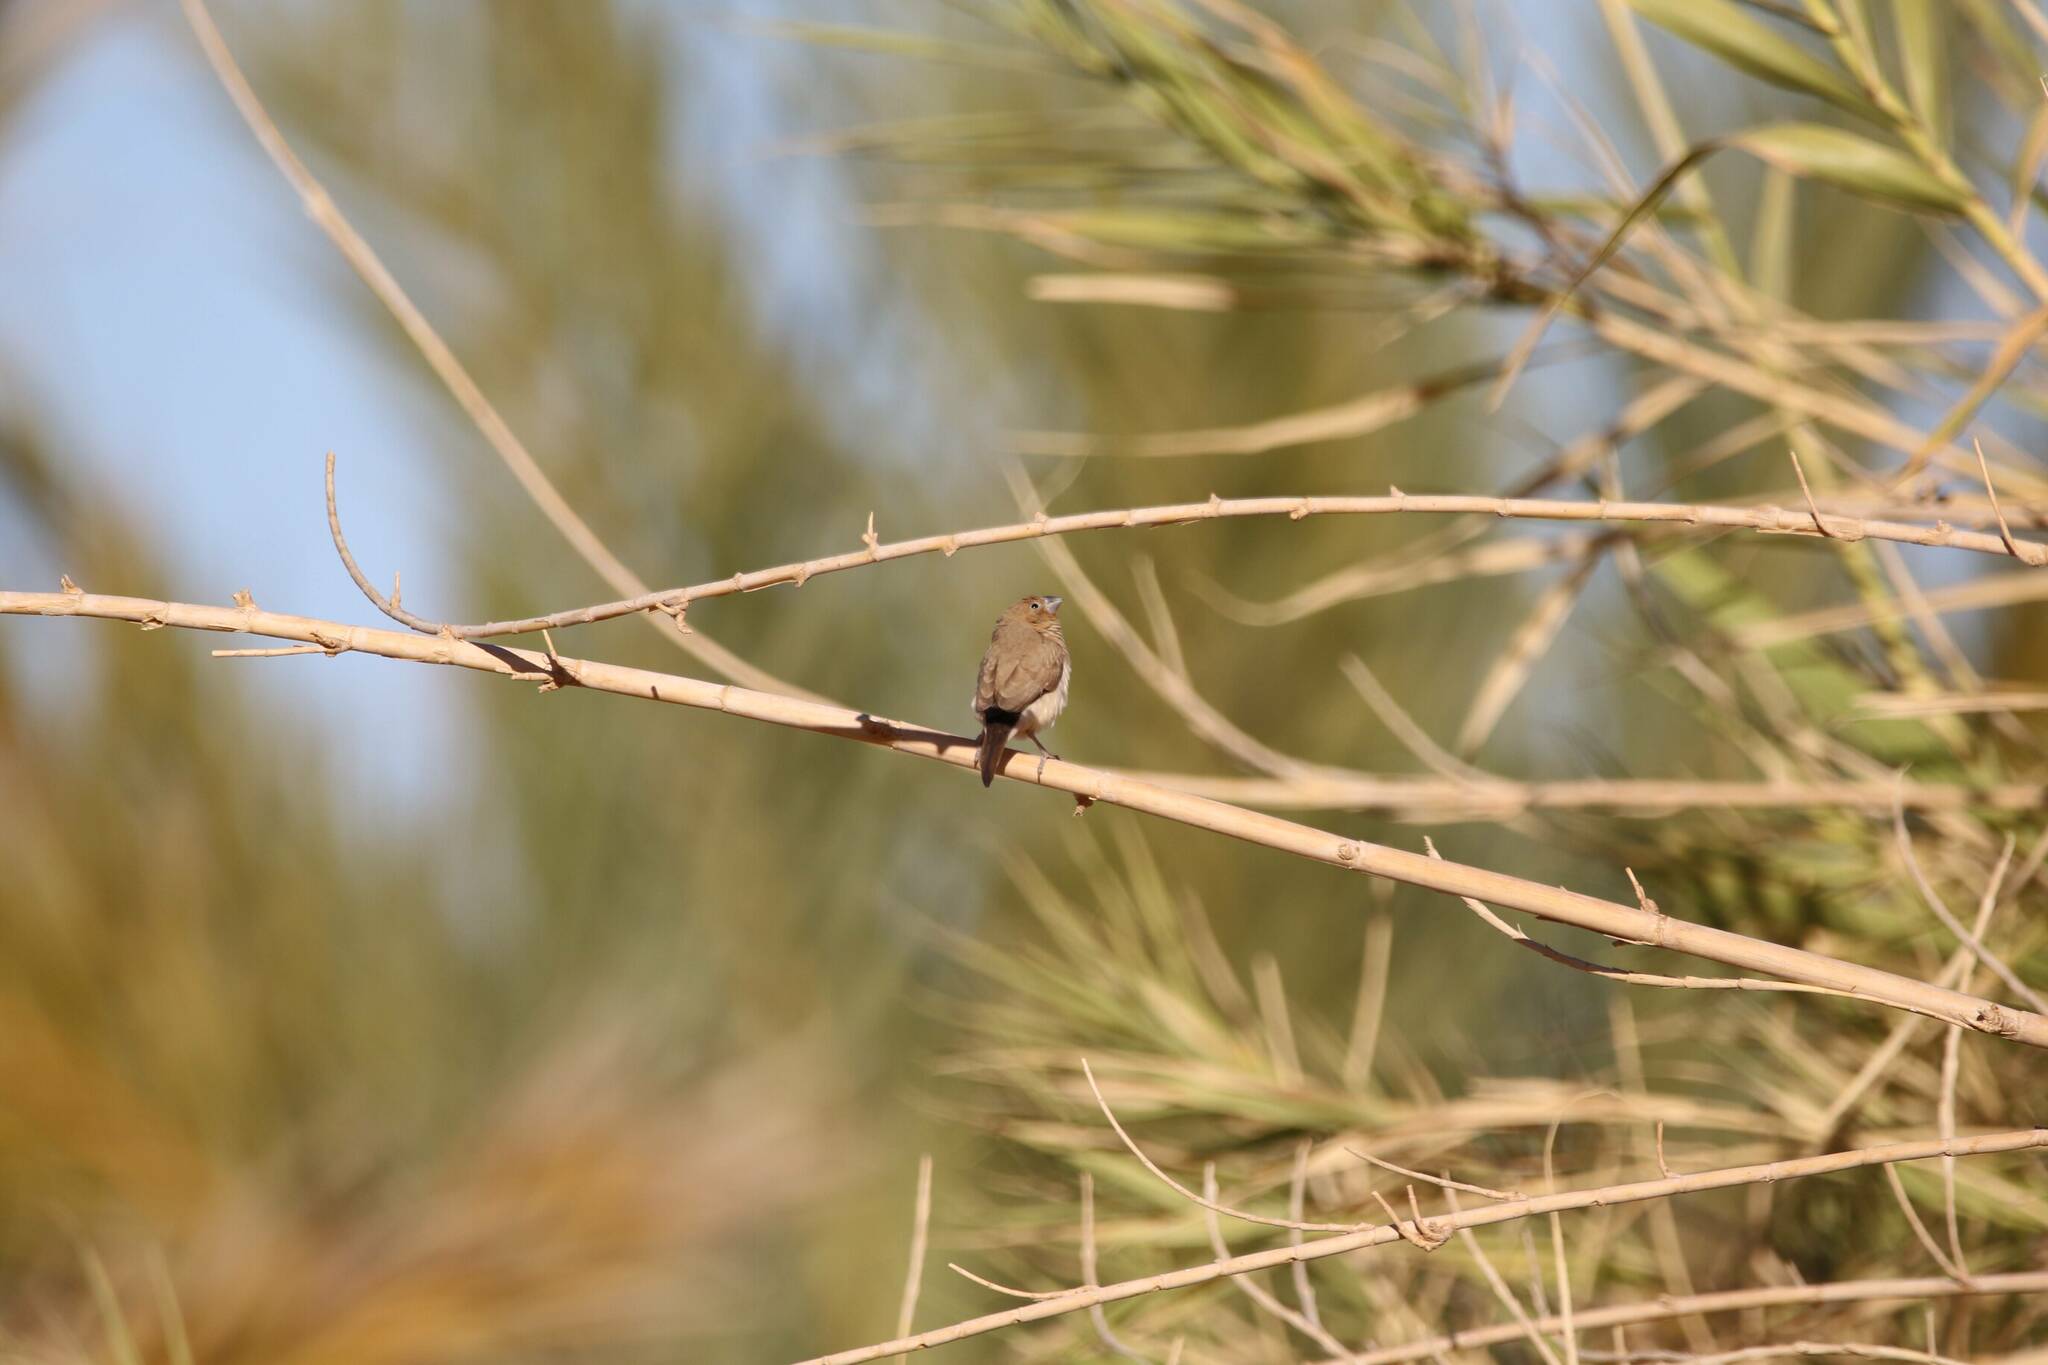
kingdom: Animalia
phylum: Chordata
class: Aves
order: Passeriformes
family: Estrildidae
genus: Euodice
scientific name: Euodice cantans
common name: African silverbill
